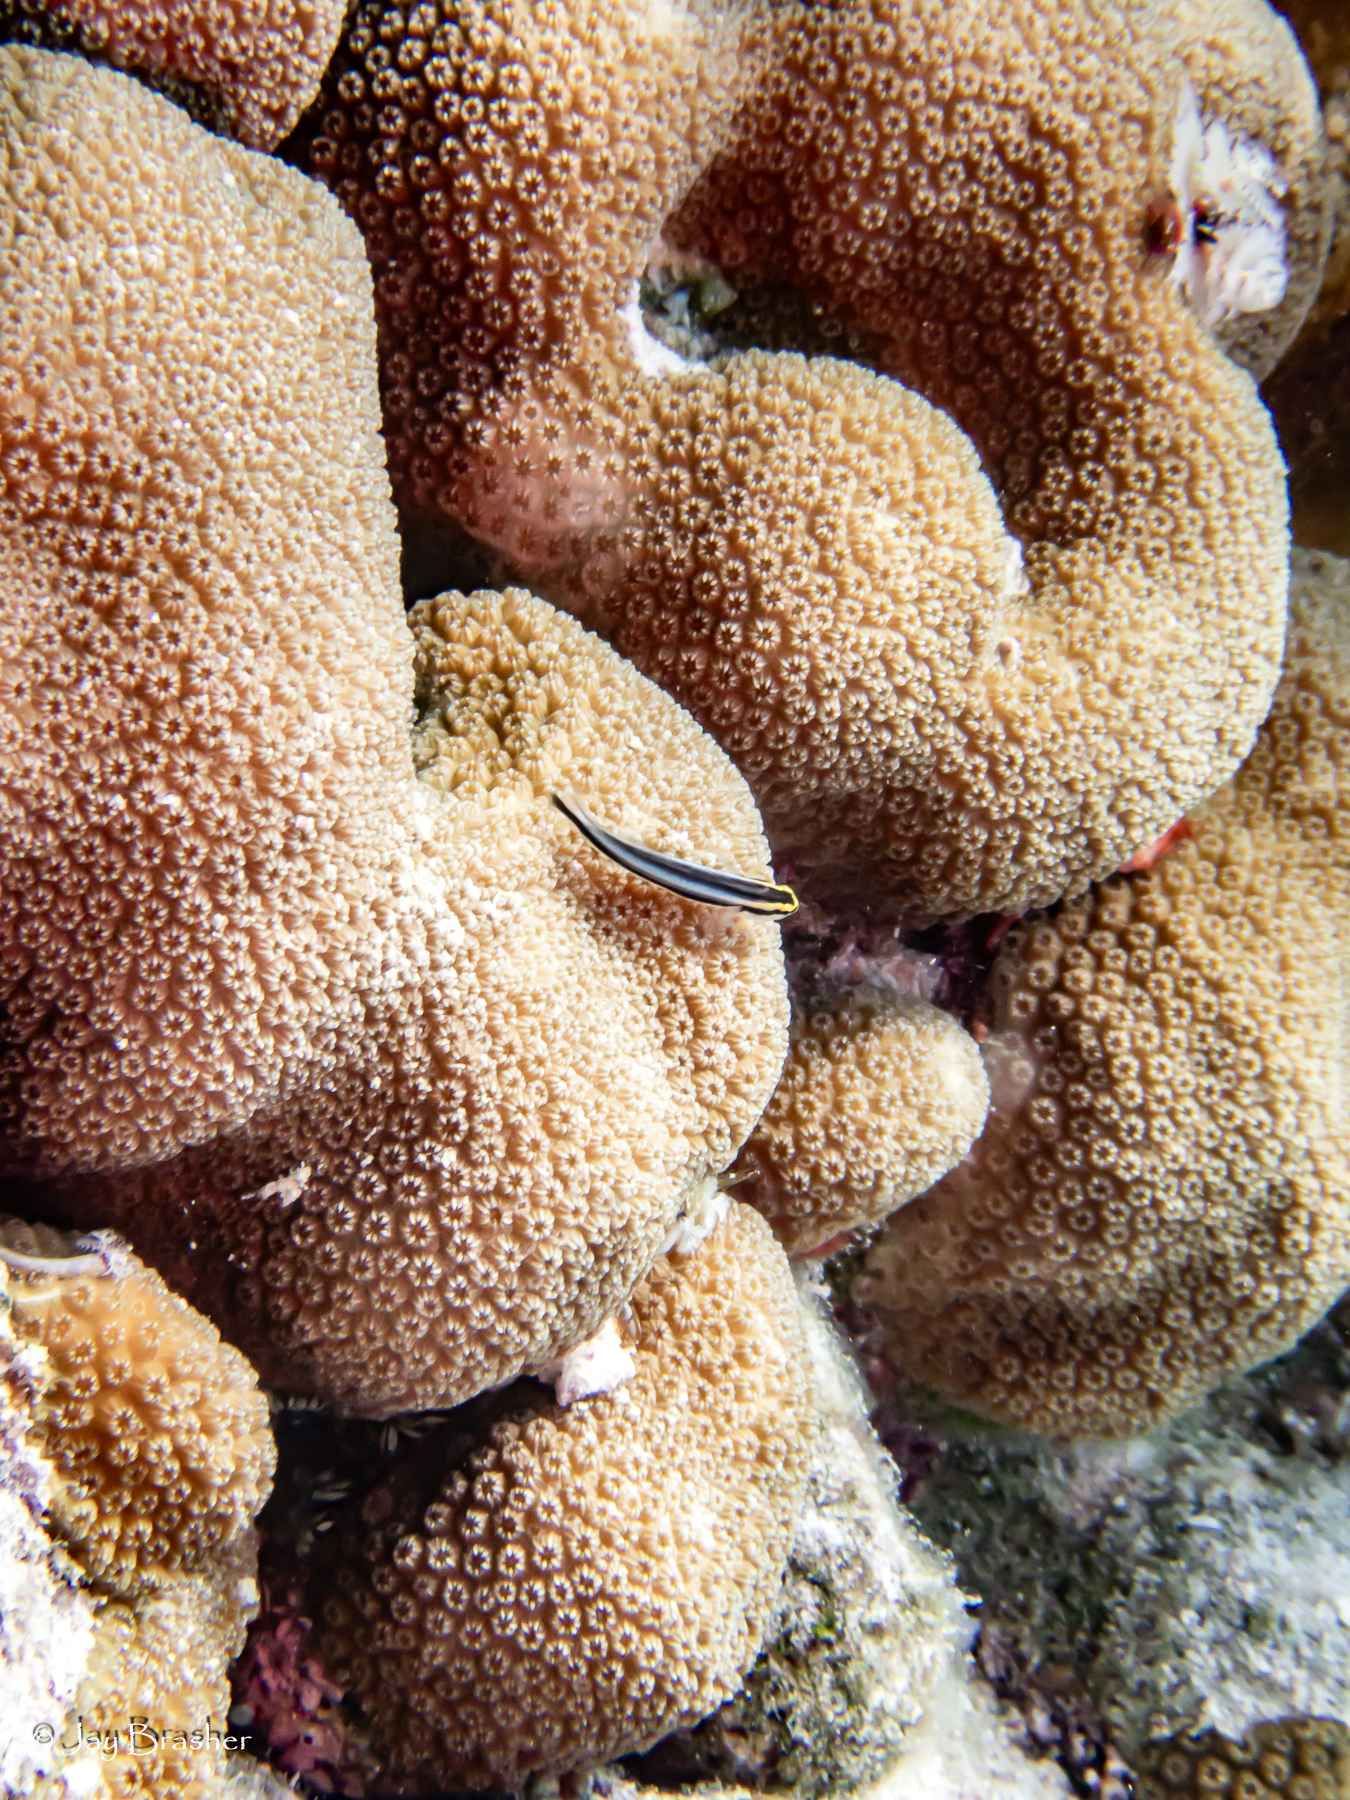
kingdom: Animalia
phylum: Cnidaria
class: Anthozoa
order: Scleractinia
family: Merulinidae
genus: Orbicella
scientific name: Orbicella annularis
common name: Boulder star coral
